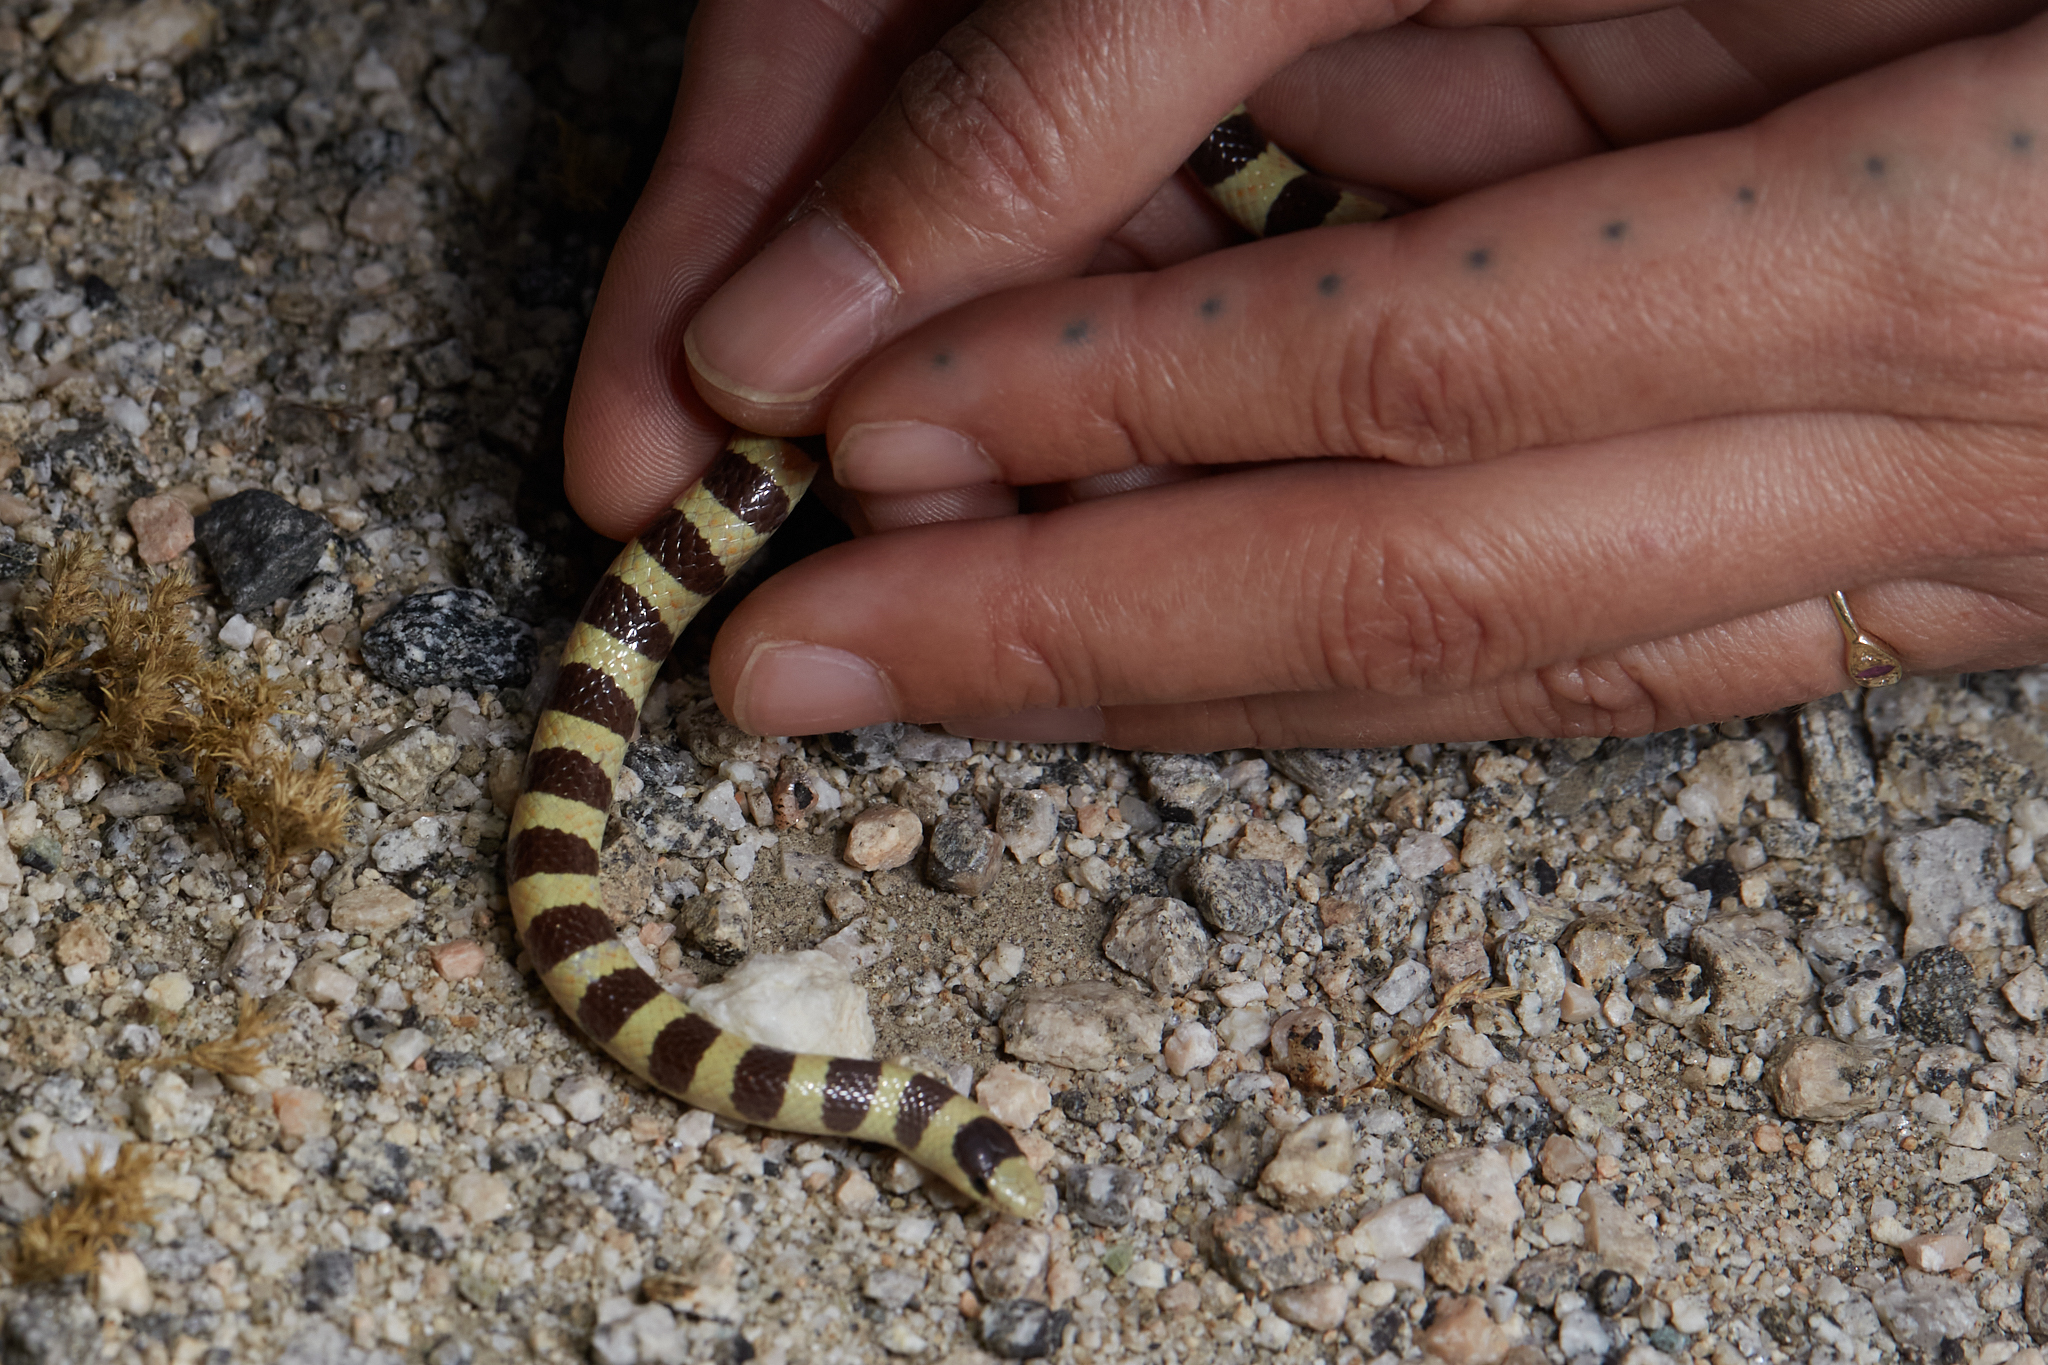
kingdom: Animalia
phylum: Chordata
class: Squamata
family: Colubridae
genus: Sonora
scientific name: Sonora occipitalis
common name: Western shovelnose snake
